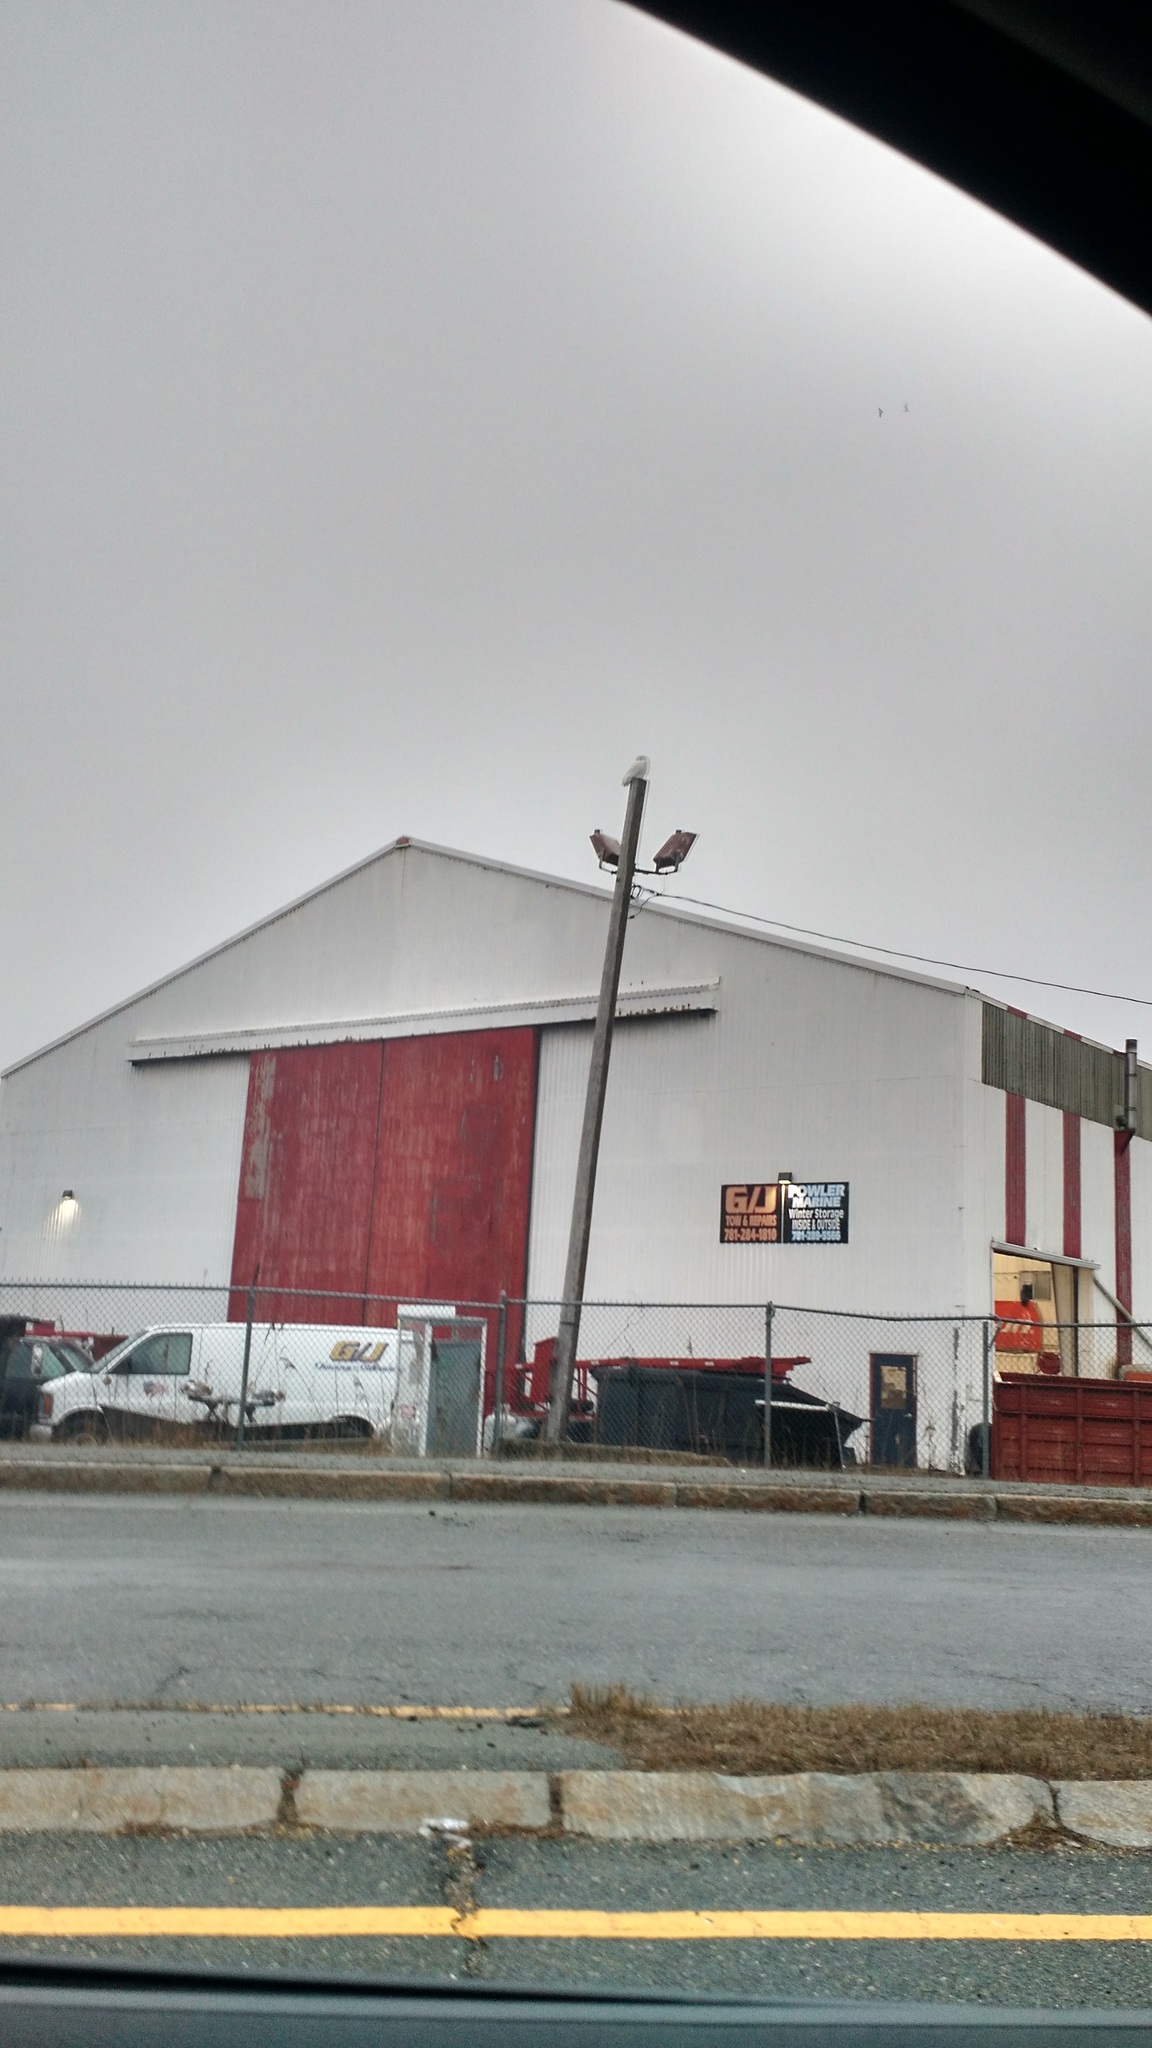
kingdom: Animalia
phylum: Chordata
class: Aves
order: Strigiformes
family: Strigidae
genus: Bubo
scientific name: Bubo scandiacus
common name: Snowy owl
